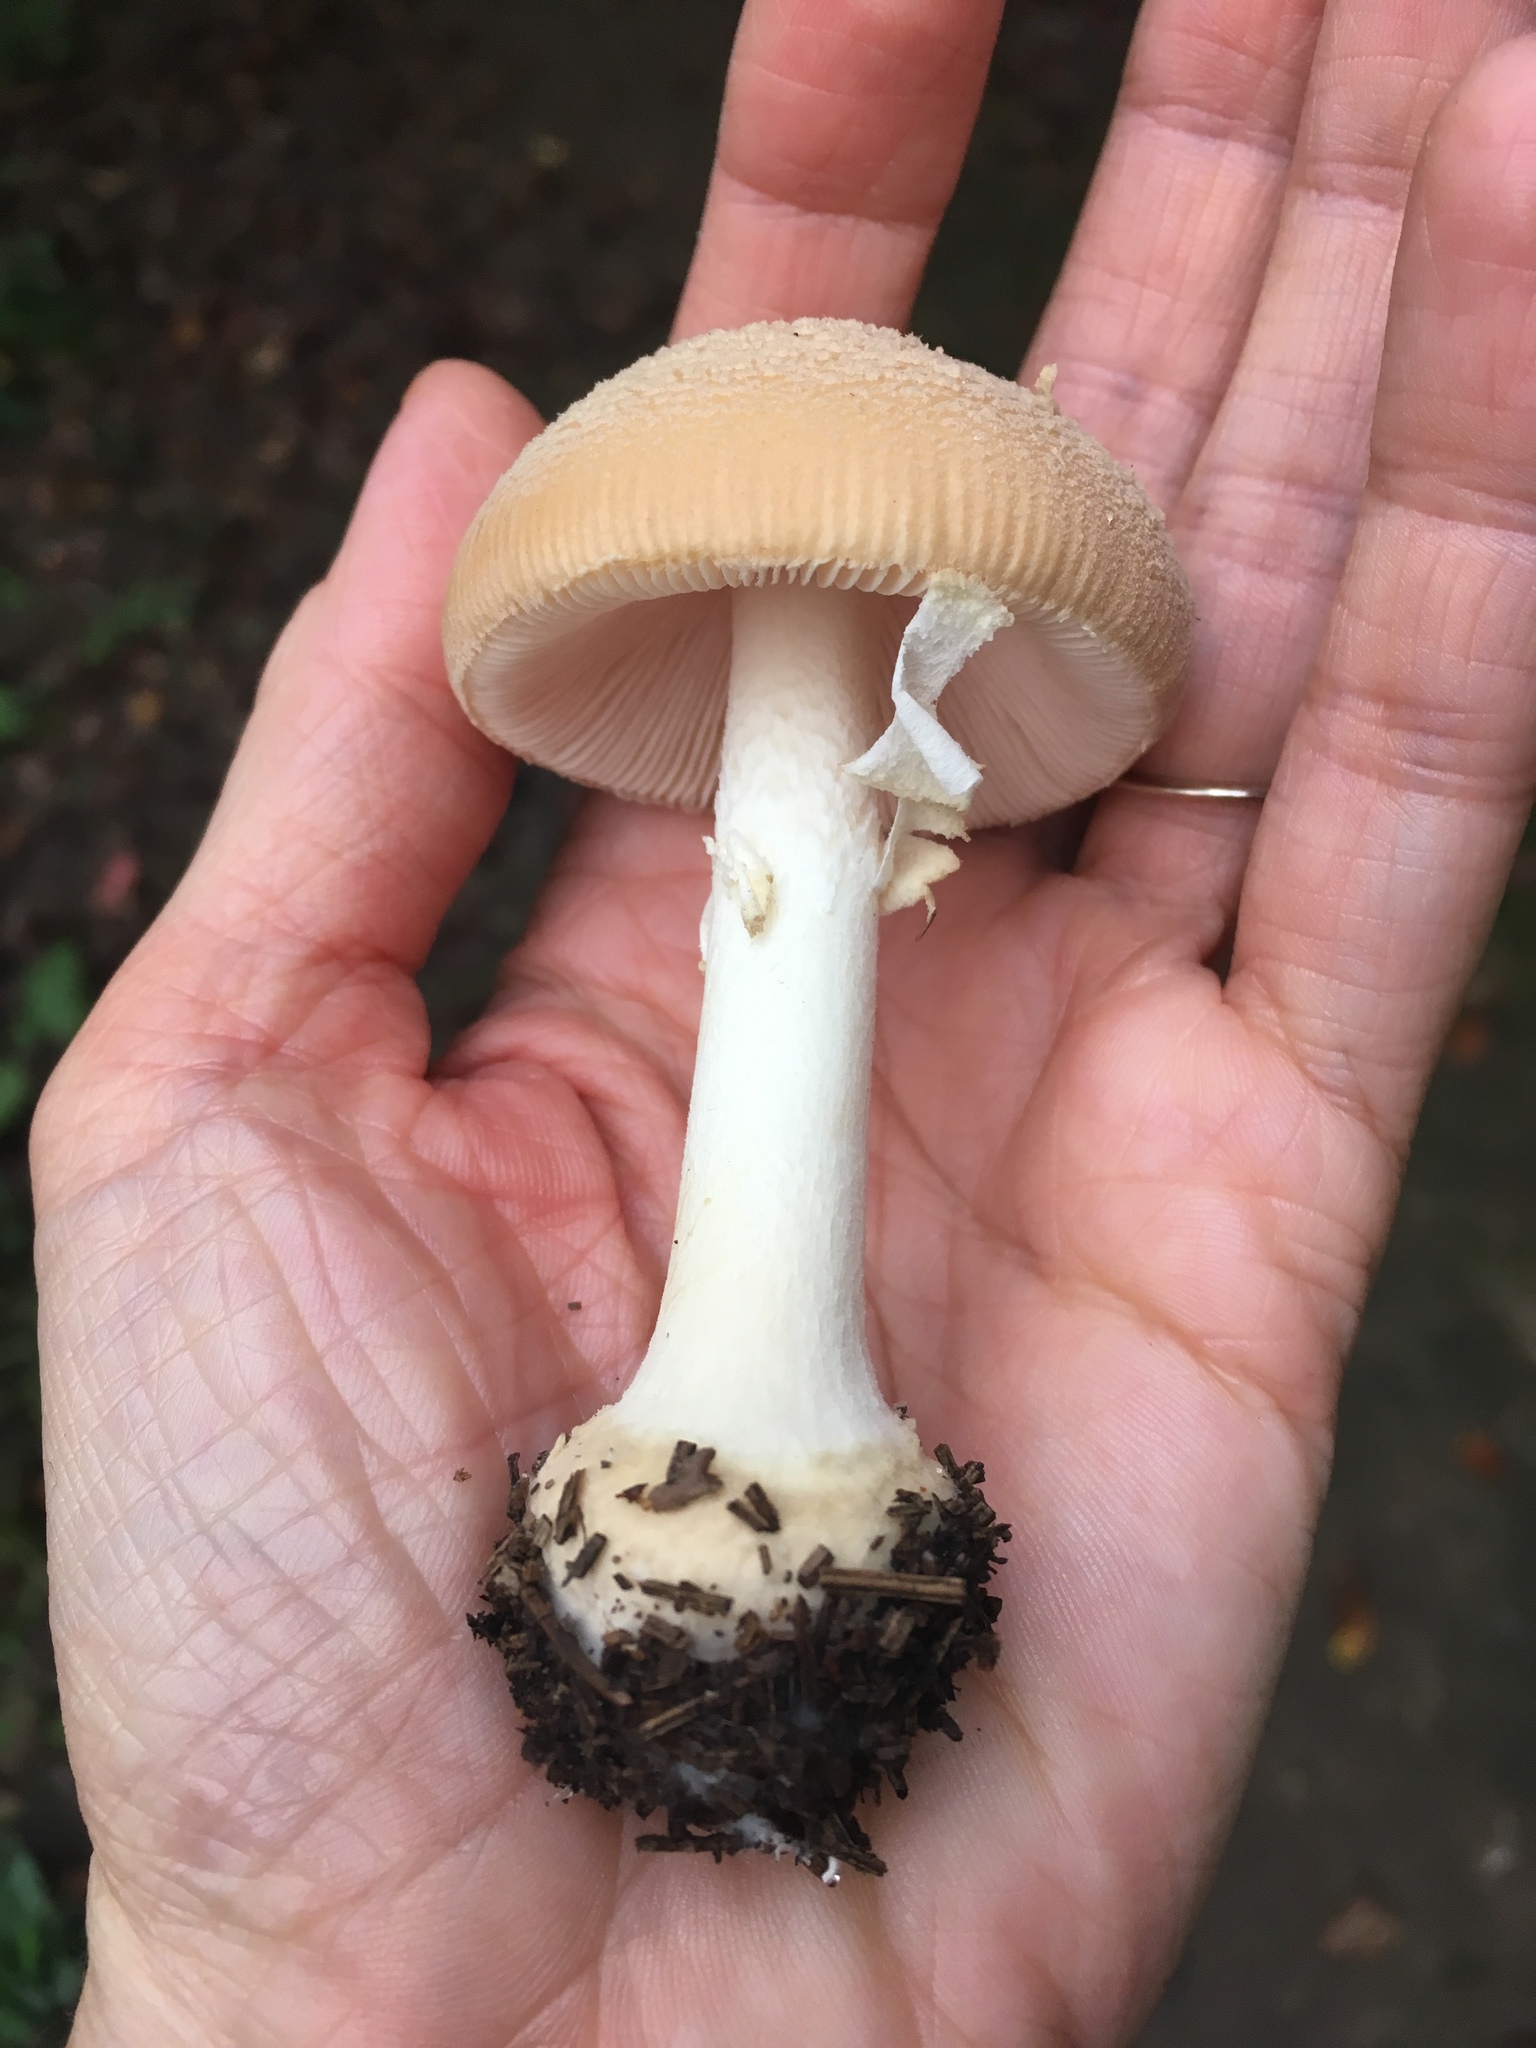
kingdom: Fungi
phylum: Basidiomycota
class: Agaricomycetes
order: Agaricales
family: Amanitaceae
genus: Amanita
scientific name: Amanita crenulata
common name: Poison champagne amanita
